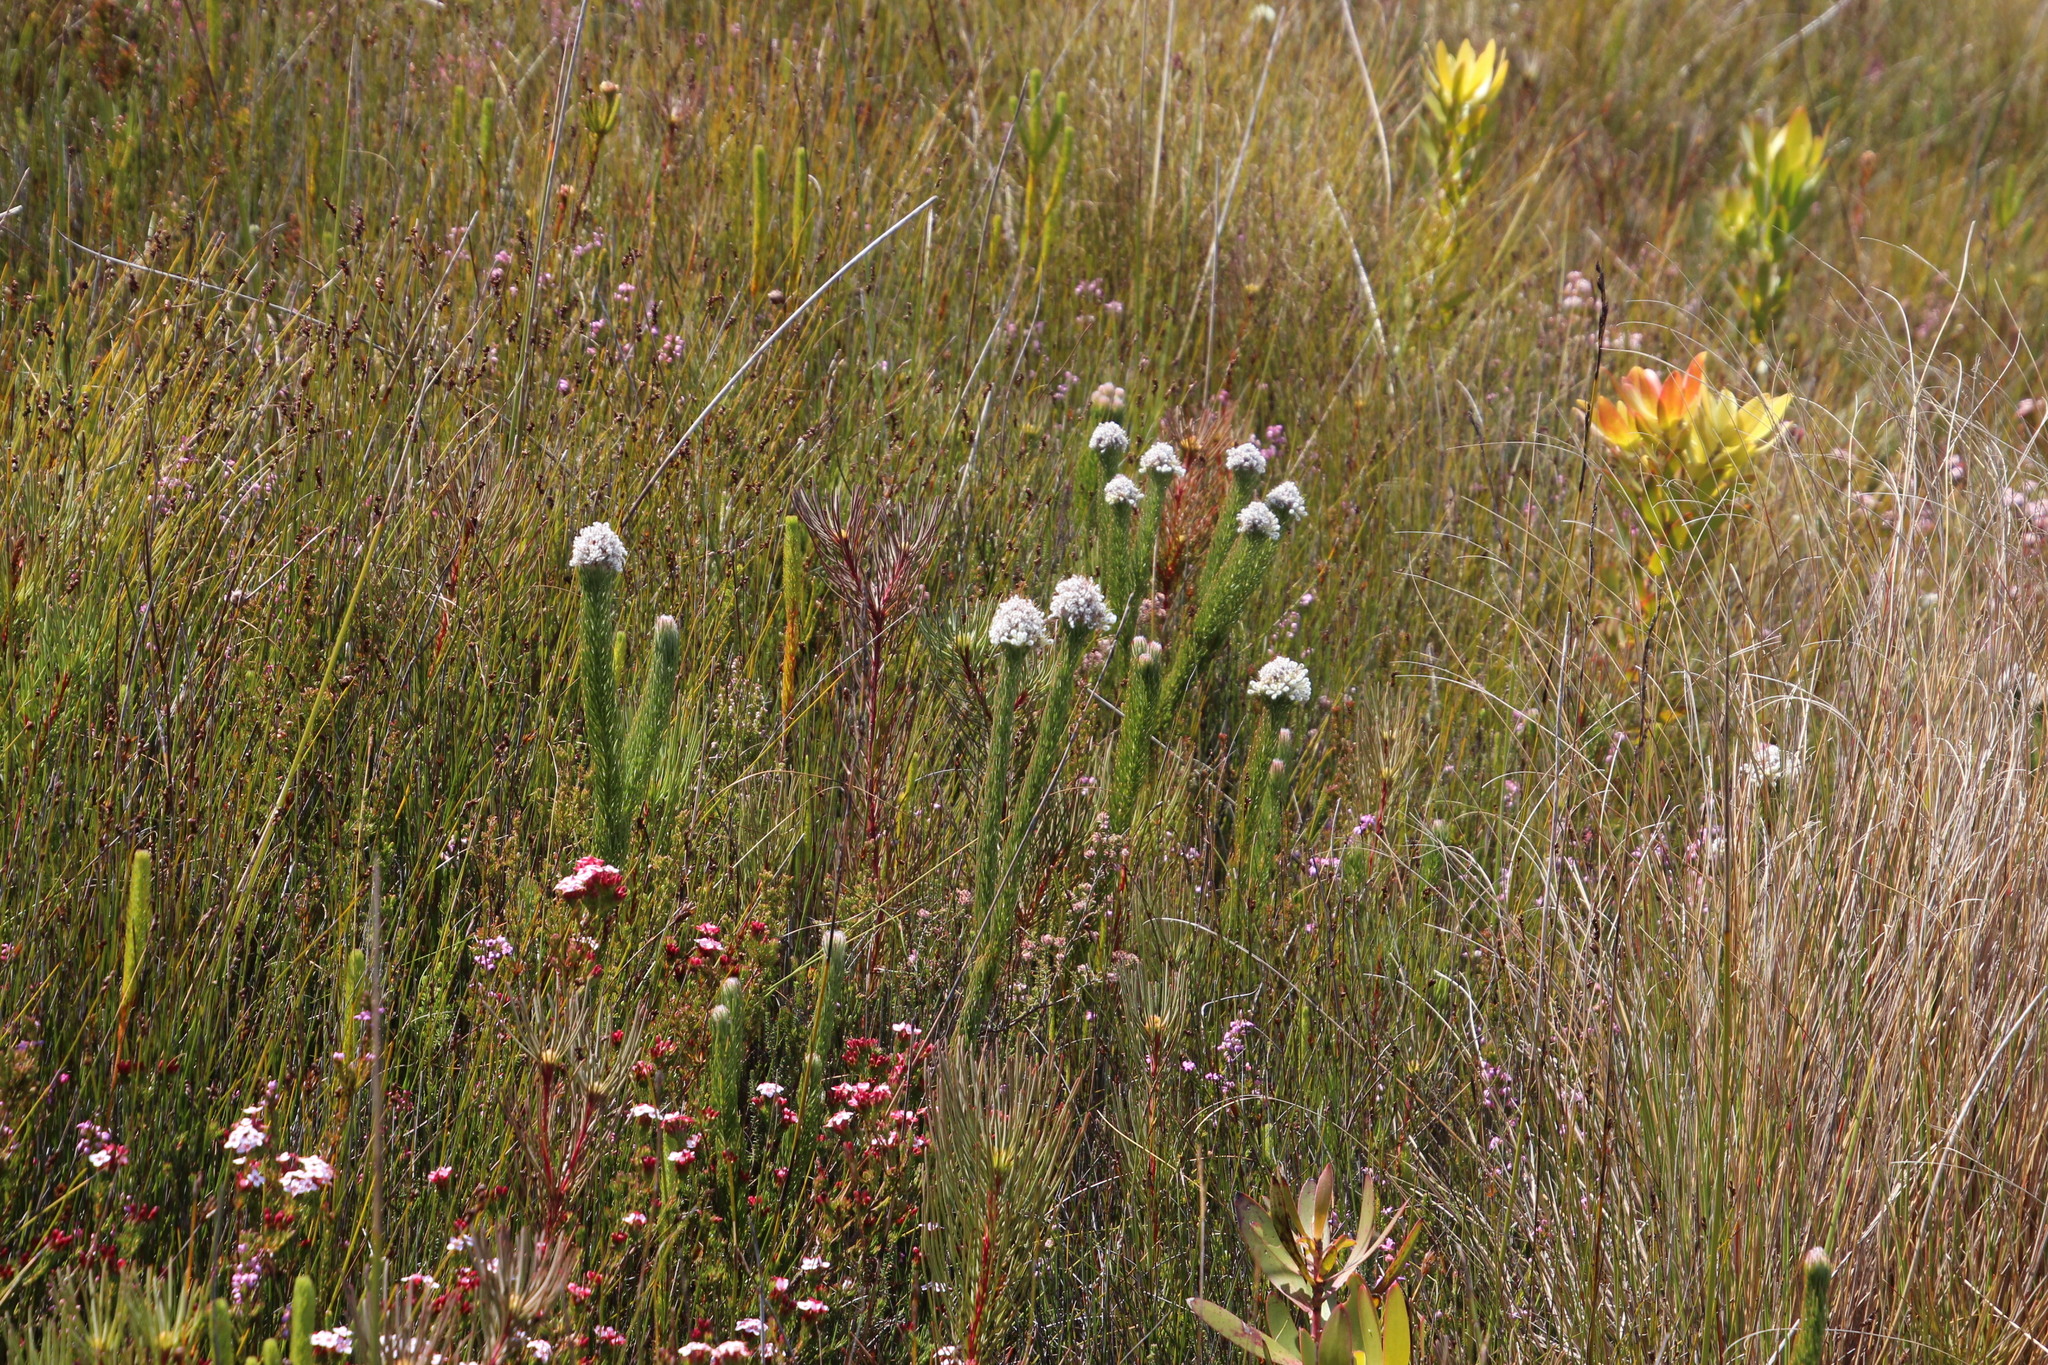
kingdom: Plantae
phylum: Tracheophyta
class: Magnoliopsida
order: Proteales
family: Proteaceae
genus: Sorocephalus
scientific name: Sorocephalus claviger
